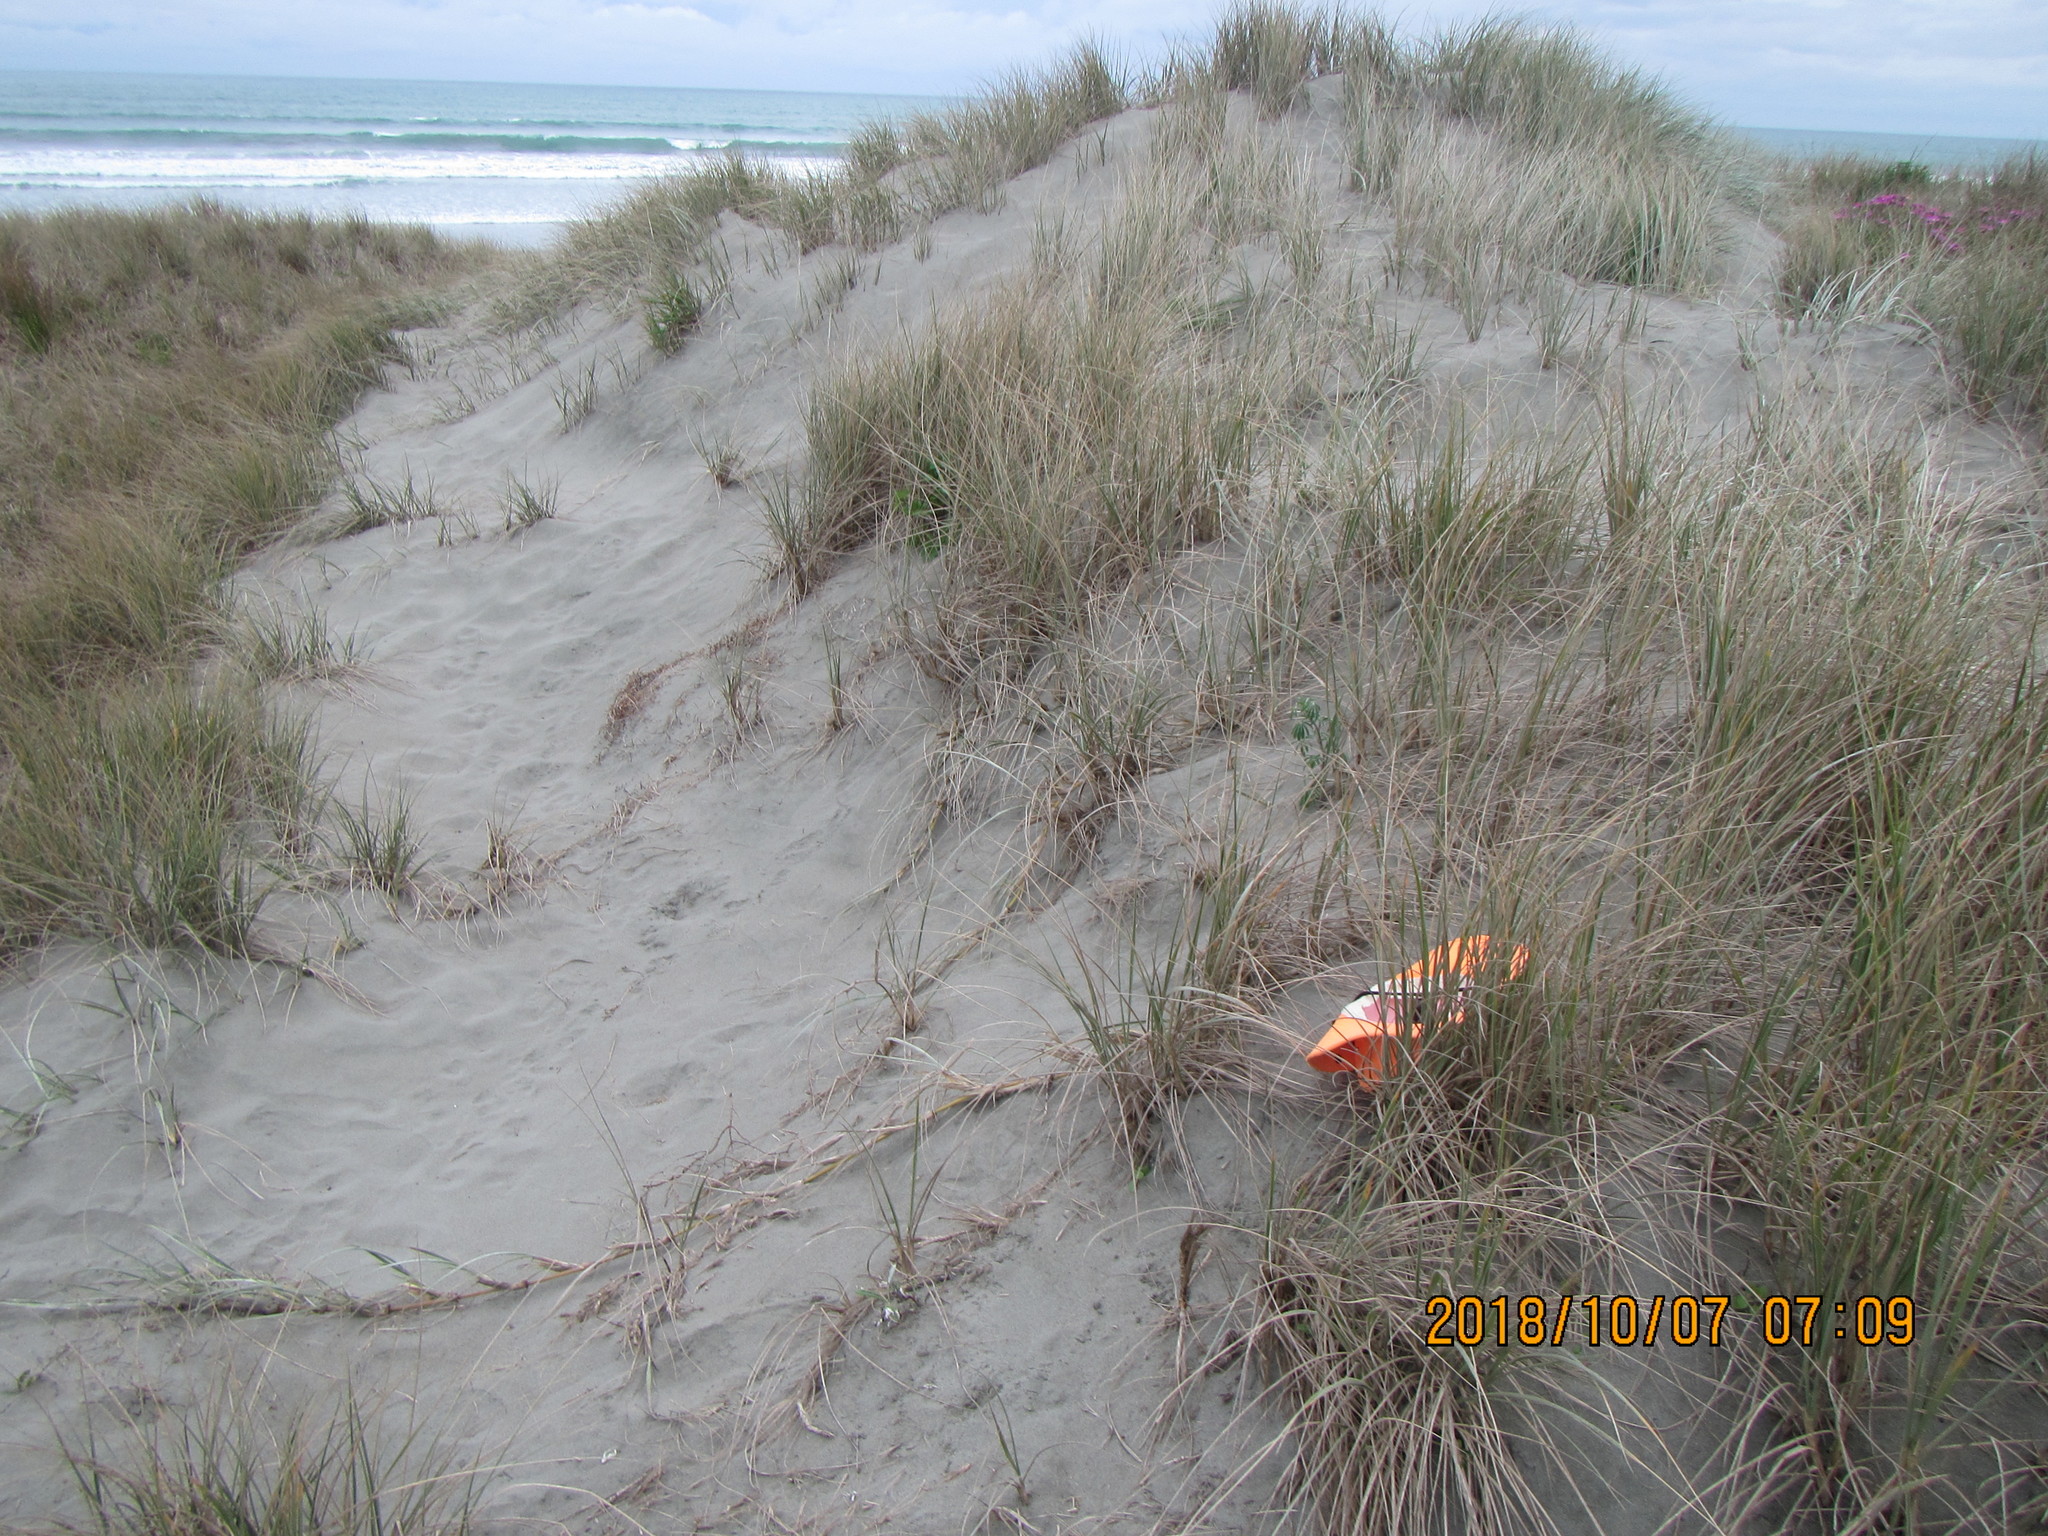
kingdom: Plantae
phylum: Tracheophyta
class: Liliopsida
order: Poales
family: Poaceae
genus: Spinifex
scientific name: Spinifex sericeus
